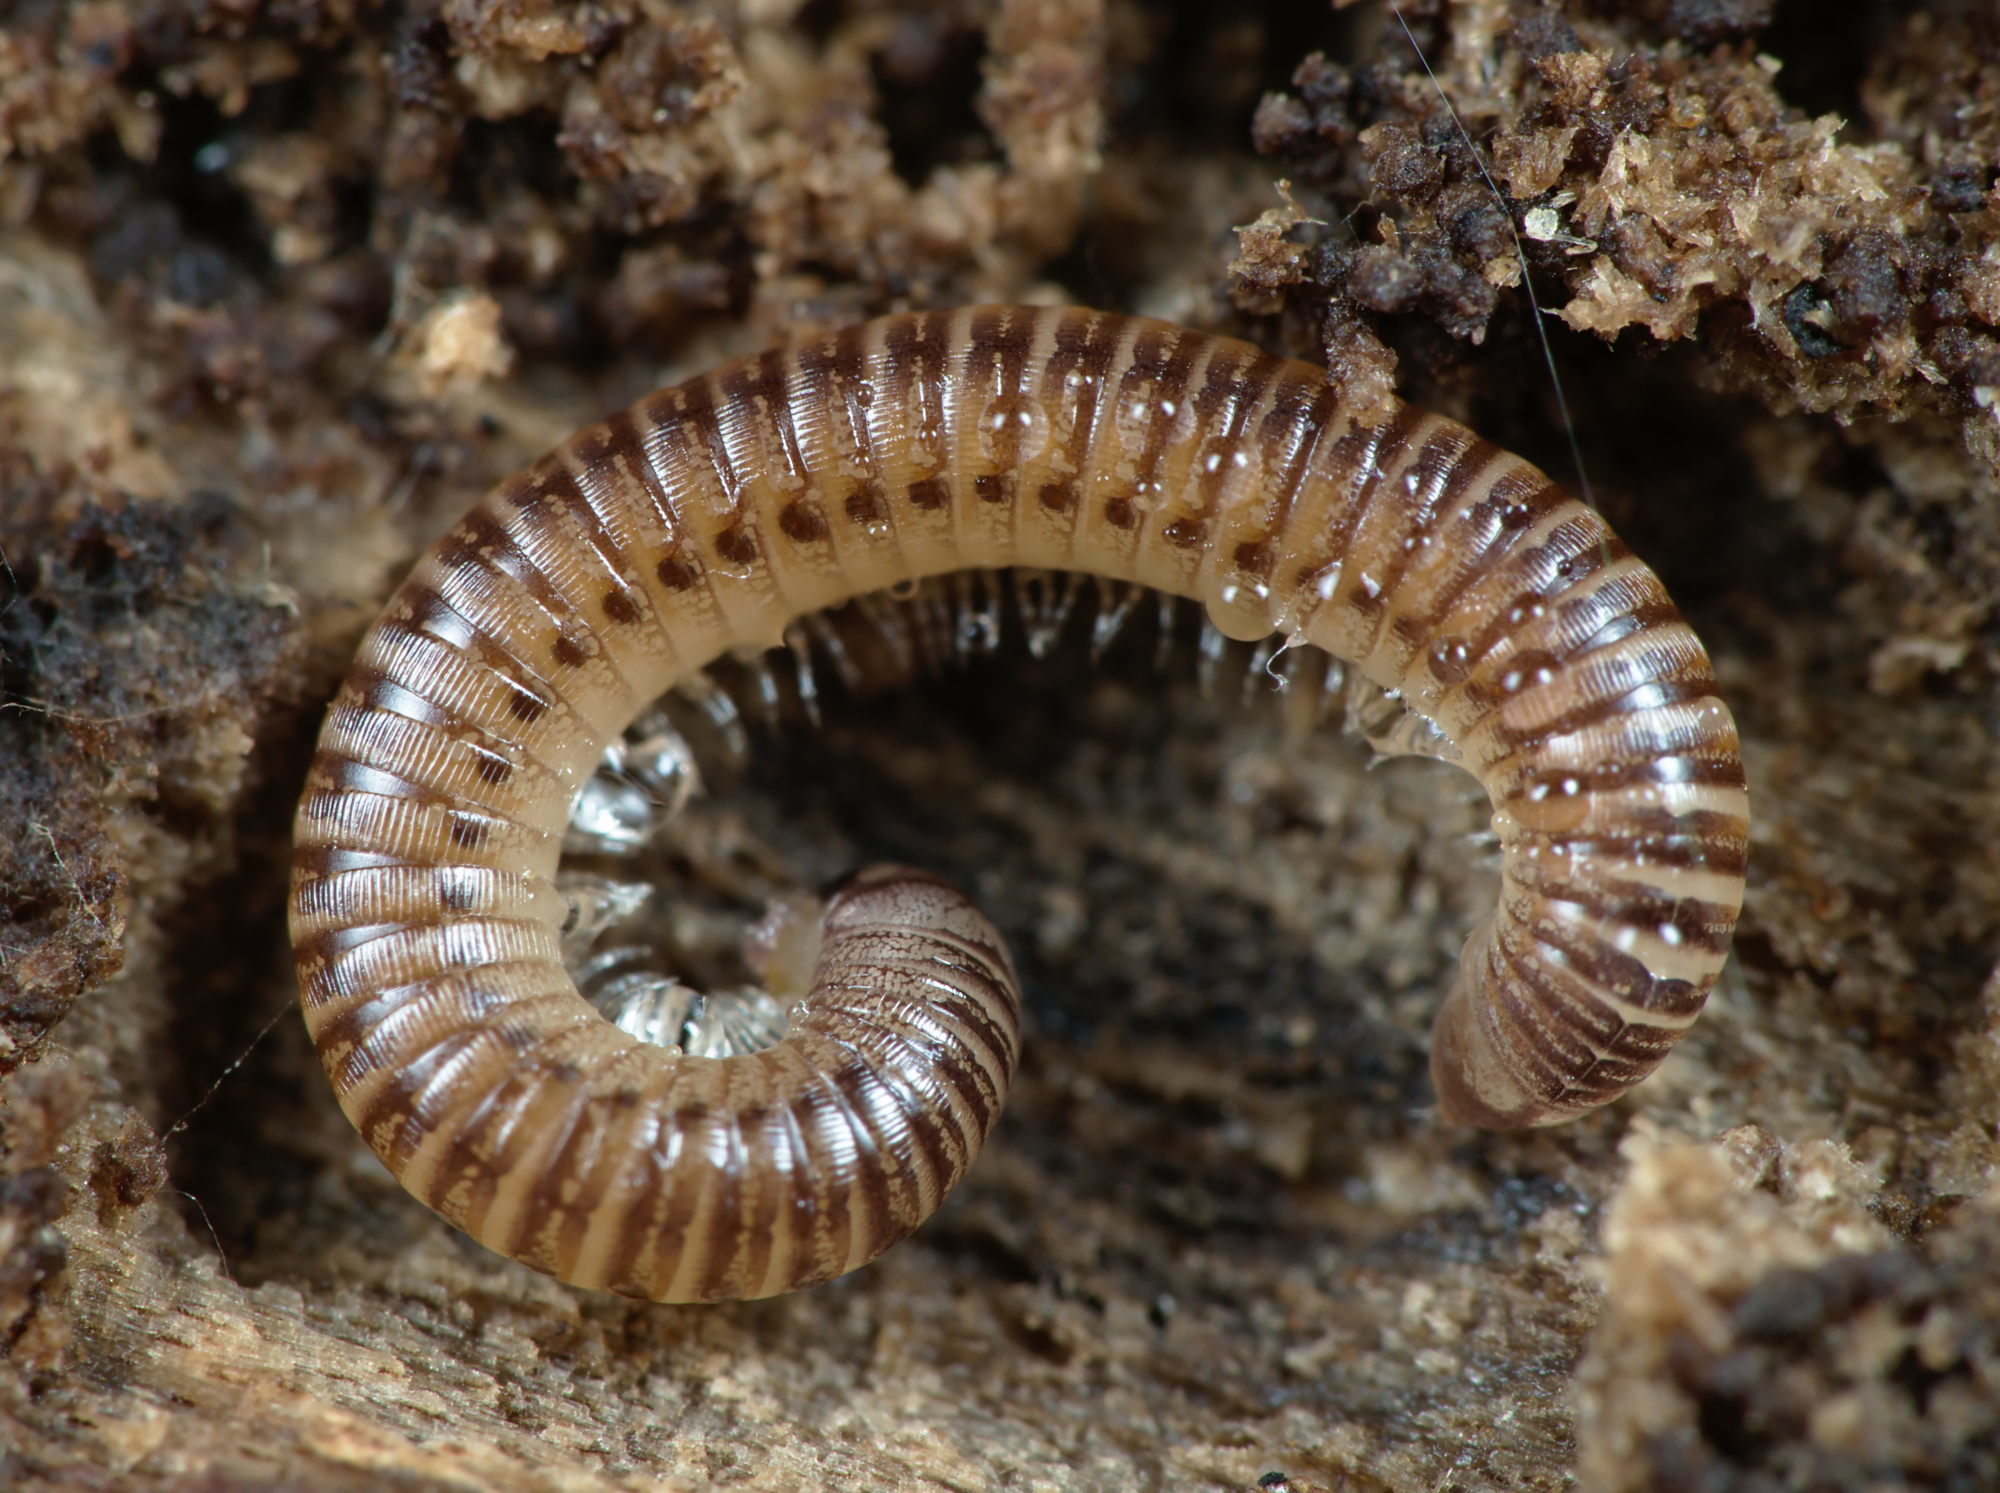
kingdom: Animalia
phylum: Arthropoda
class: Diplopoda
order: Julida
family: Julidae
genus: Cylindroiulus
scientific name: Cylindroiulus punctatus
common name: Blunt-tailed millipede
